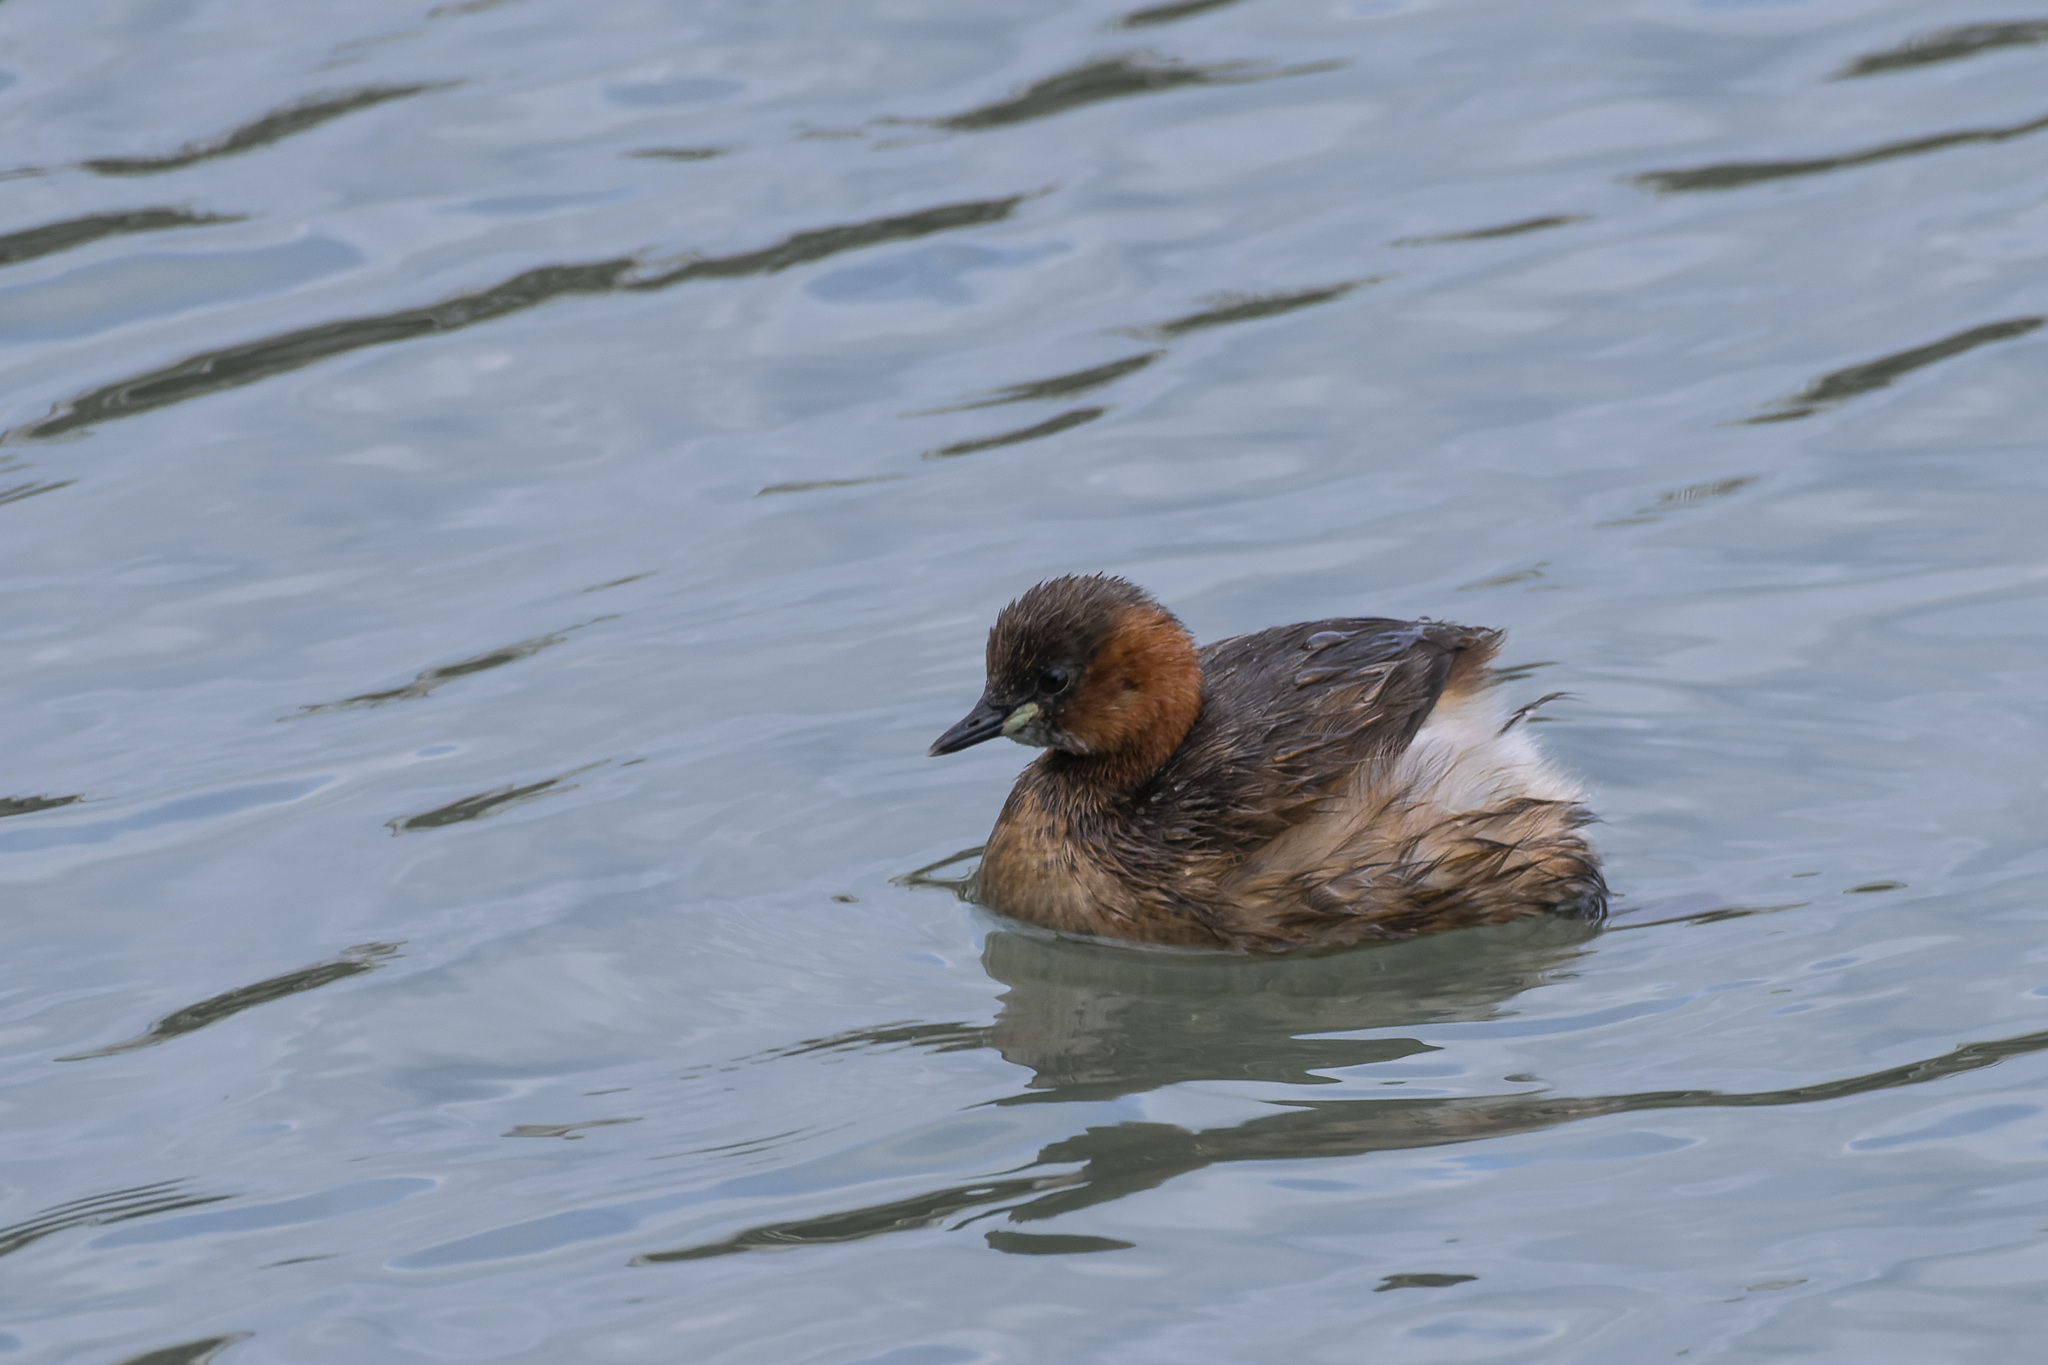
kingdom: Animalia
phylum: Chordata
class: Aves
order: Podicipediformes
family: Podicipedidae
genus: Tachybaptus
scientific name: Tachybaptus ruficollis
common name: Little grebe
